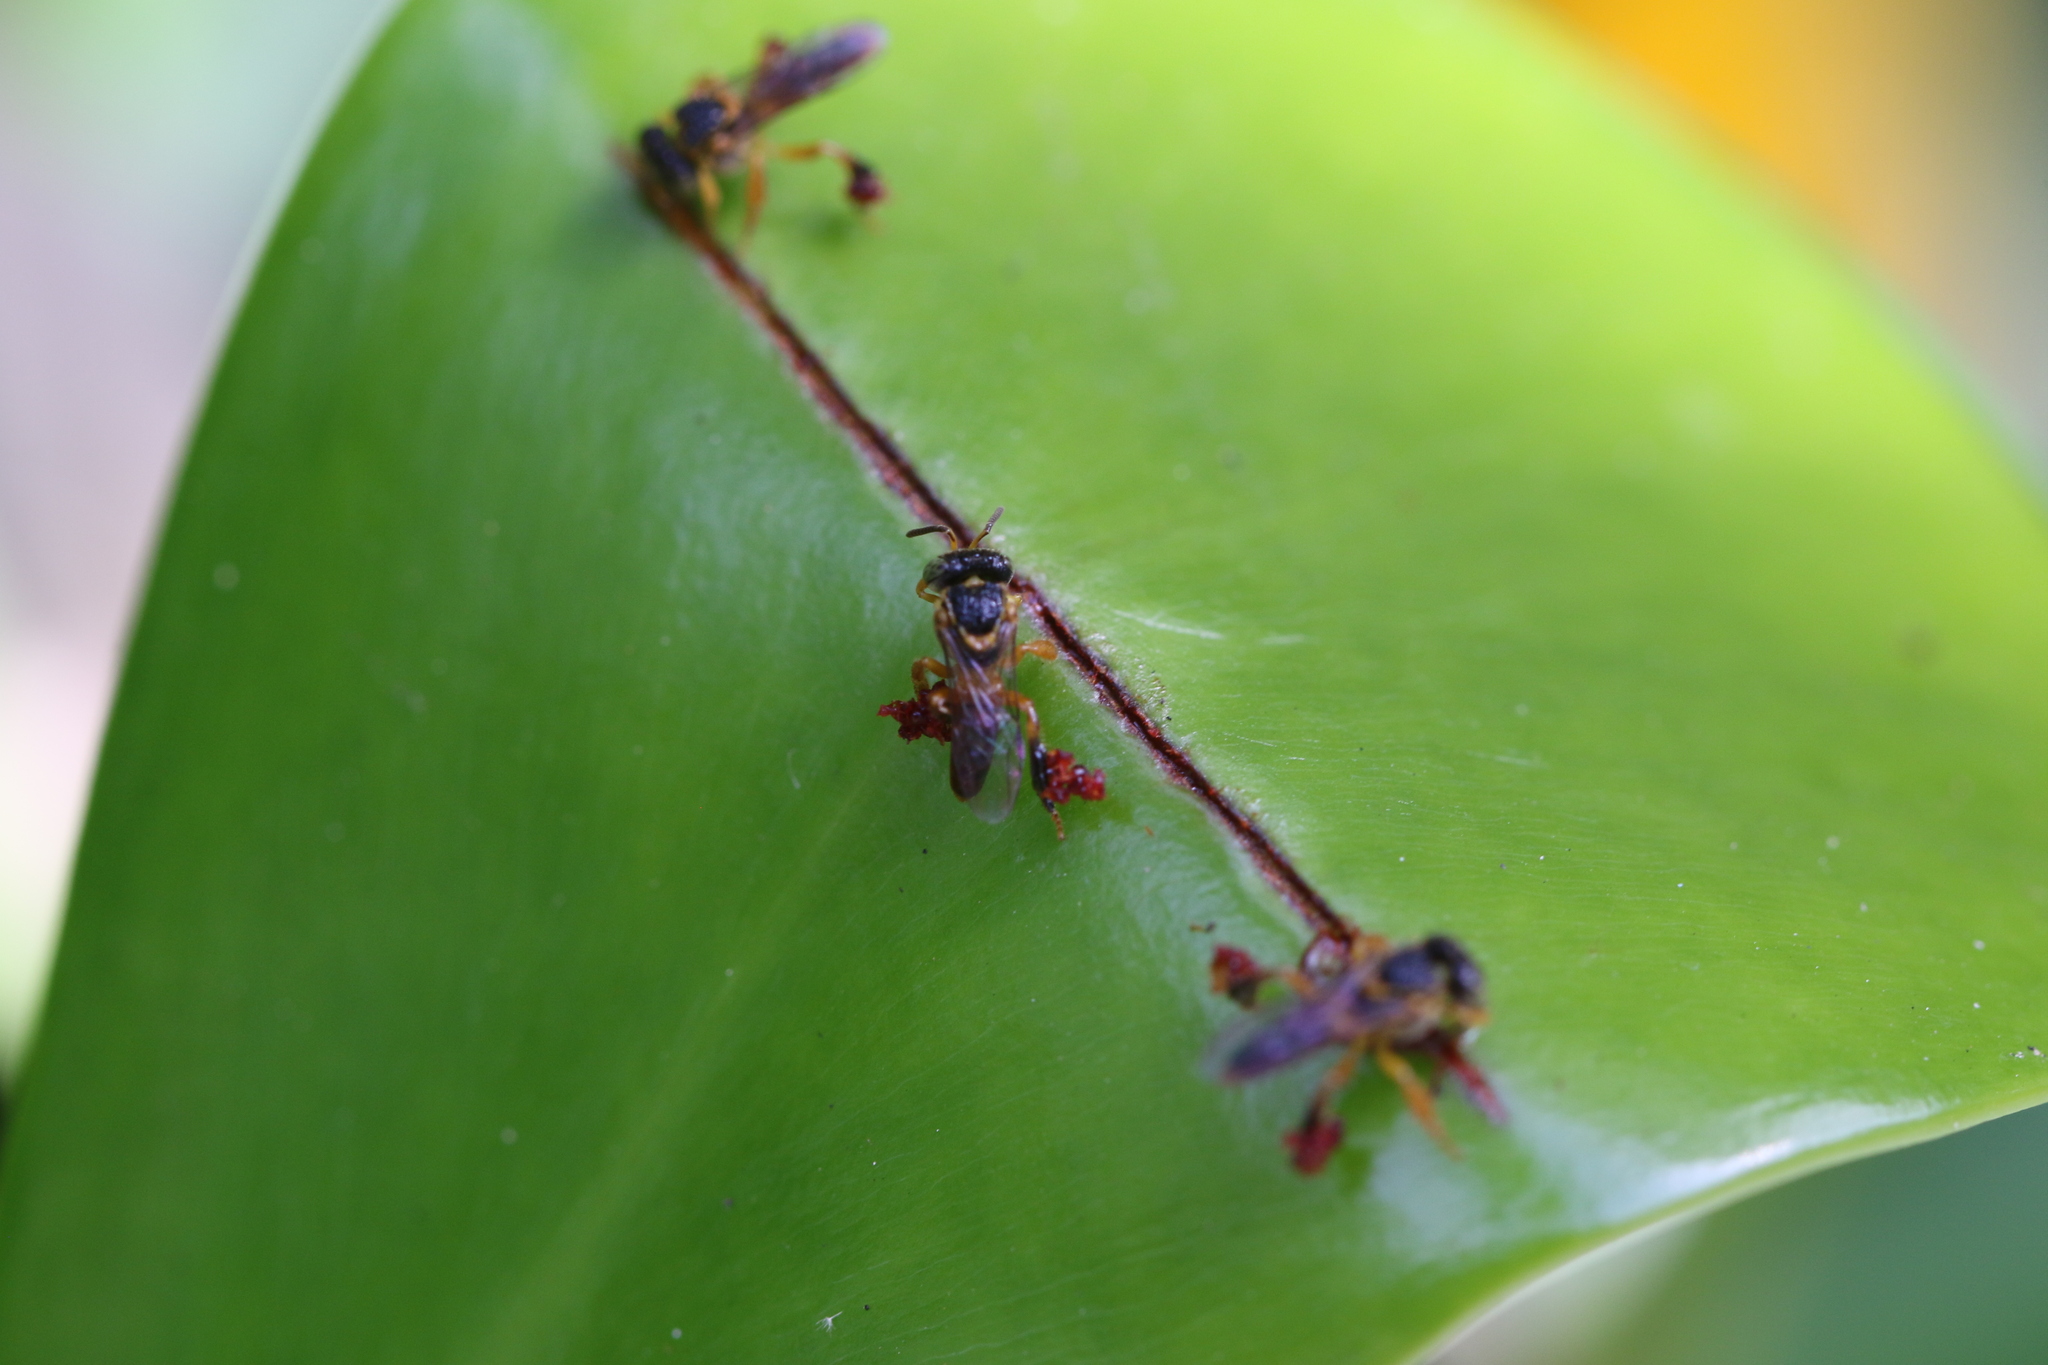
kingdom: Animalia
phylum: Arthropoda
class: Insecta
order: Hymenoptera
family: Apidae
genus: Tetragonisca
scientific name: Tetragonisca angustula
